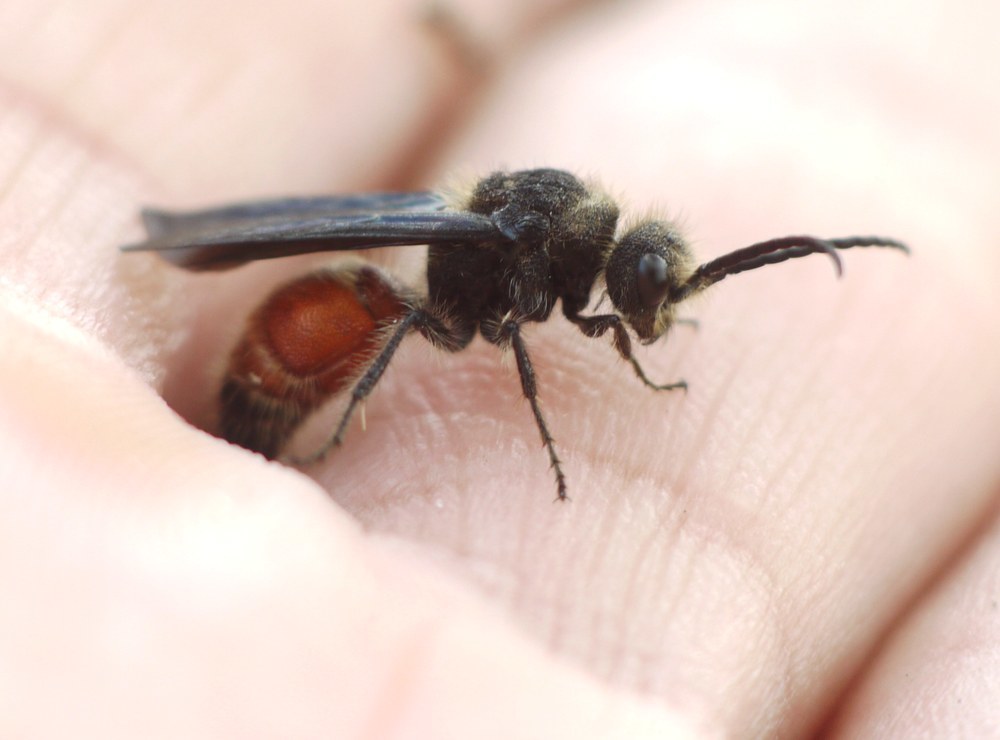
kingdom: Animalia
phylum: Arthropoda
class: Insecta
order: Hymenoptera
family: Mutillidae
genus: Ctenotilla
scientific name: Ctenotilla caeca
